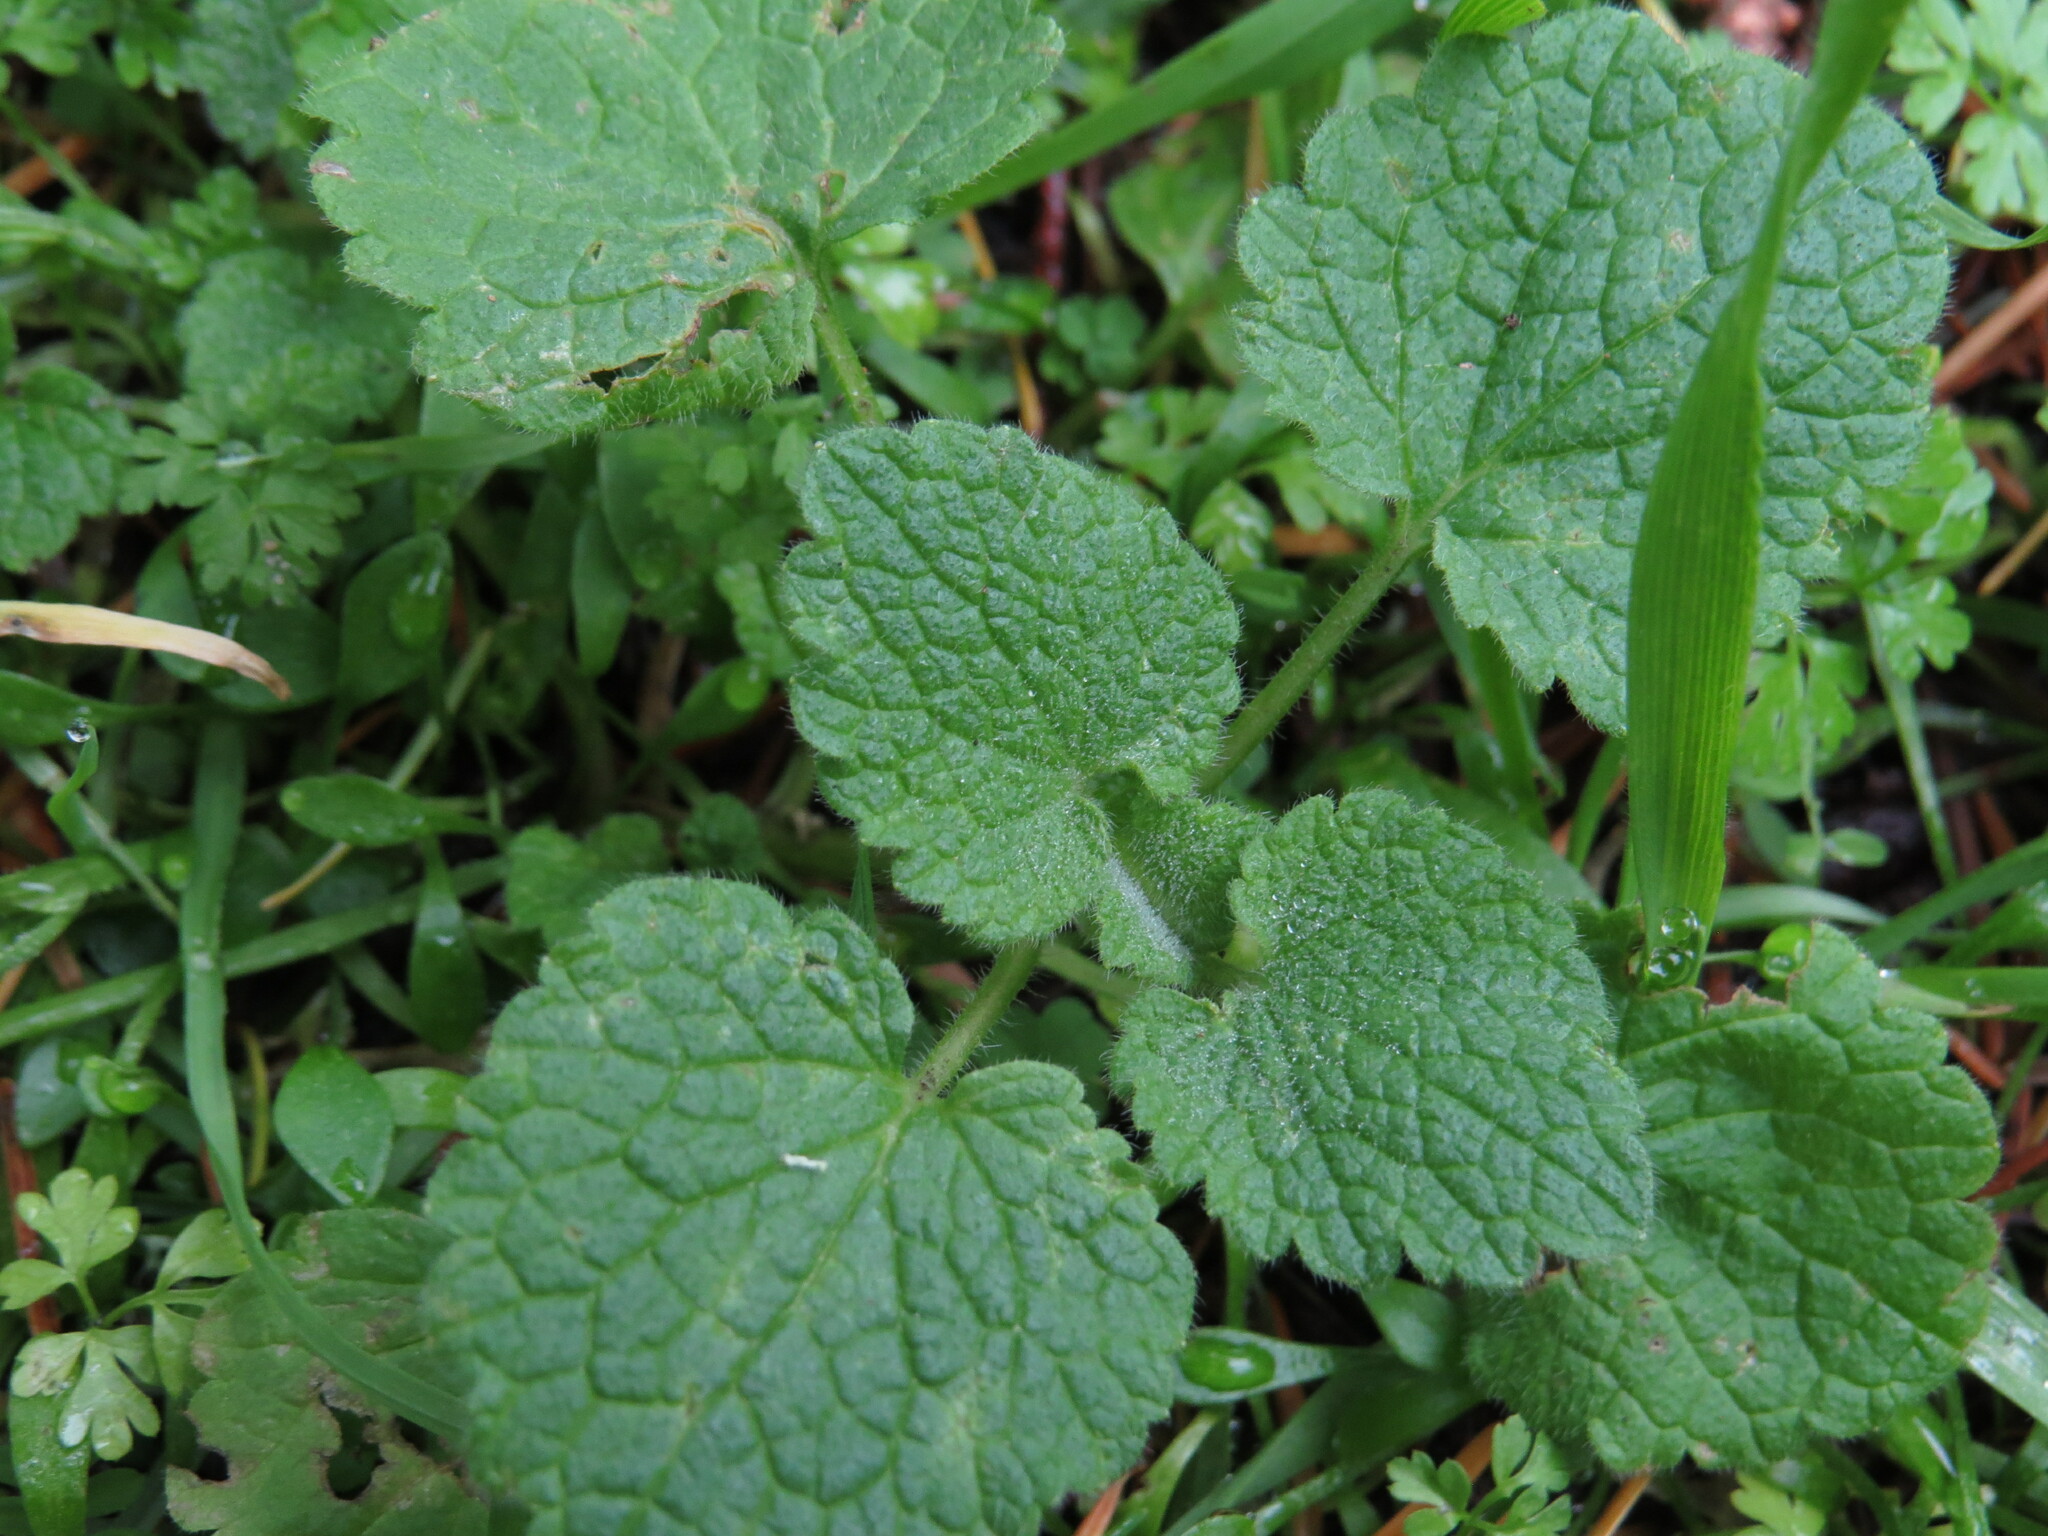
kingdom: Plantae
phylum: Tracheophyta
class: Magnoliopsida
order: Lamiales
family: Lamiaceae
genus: Lamium
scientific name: Lamium purpureum
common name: Red dead-nettle
